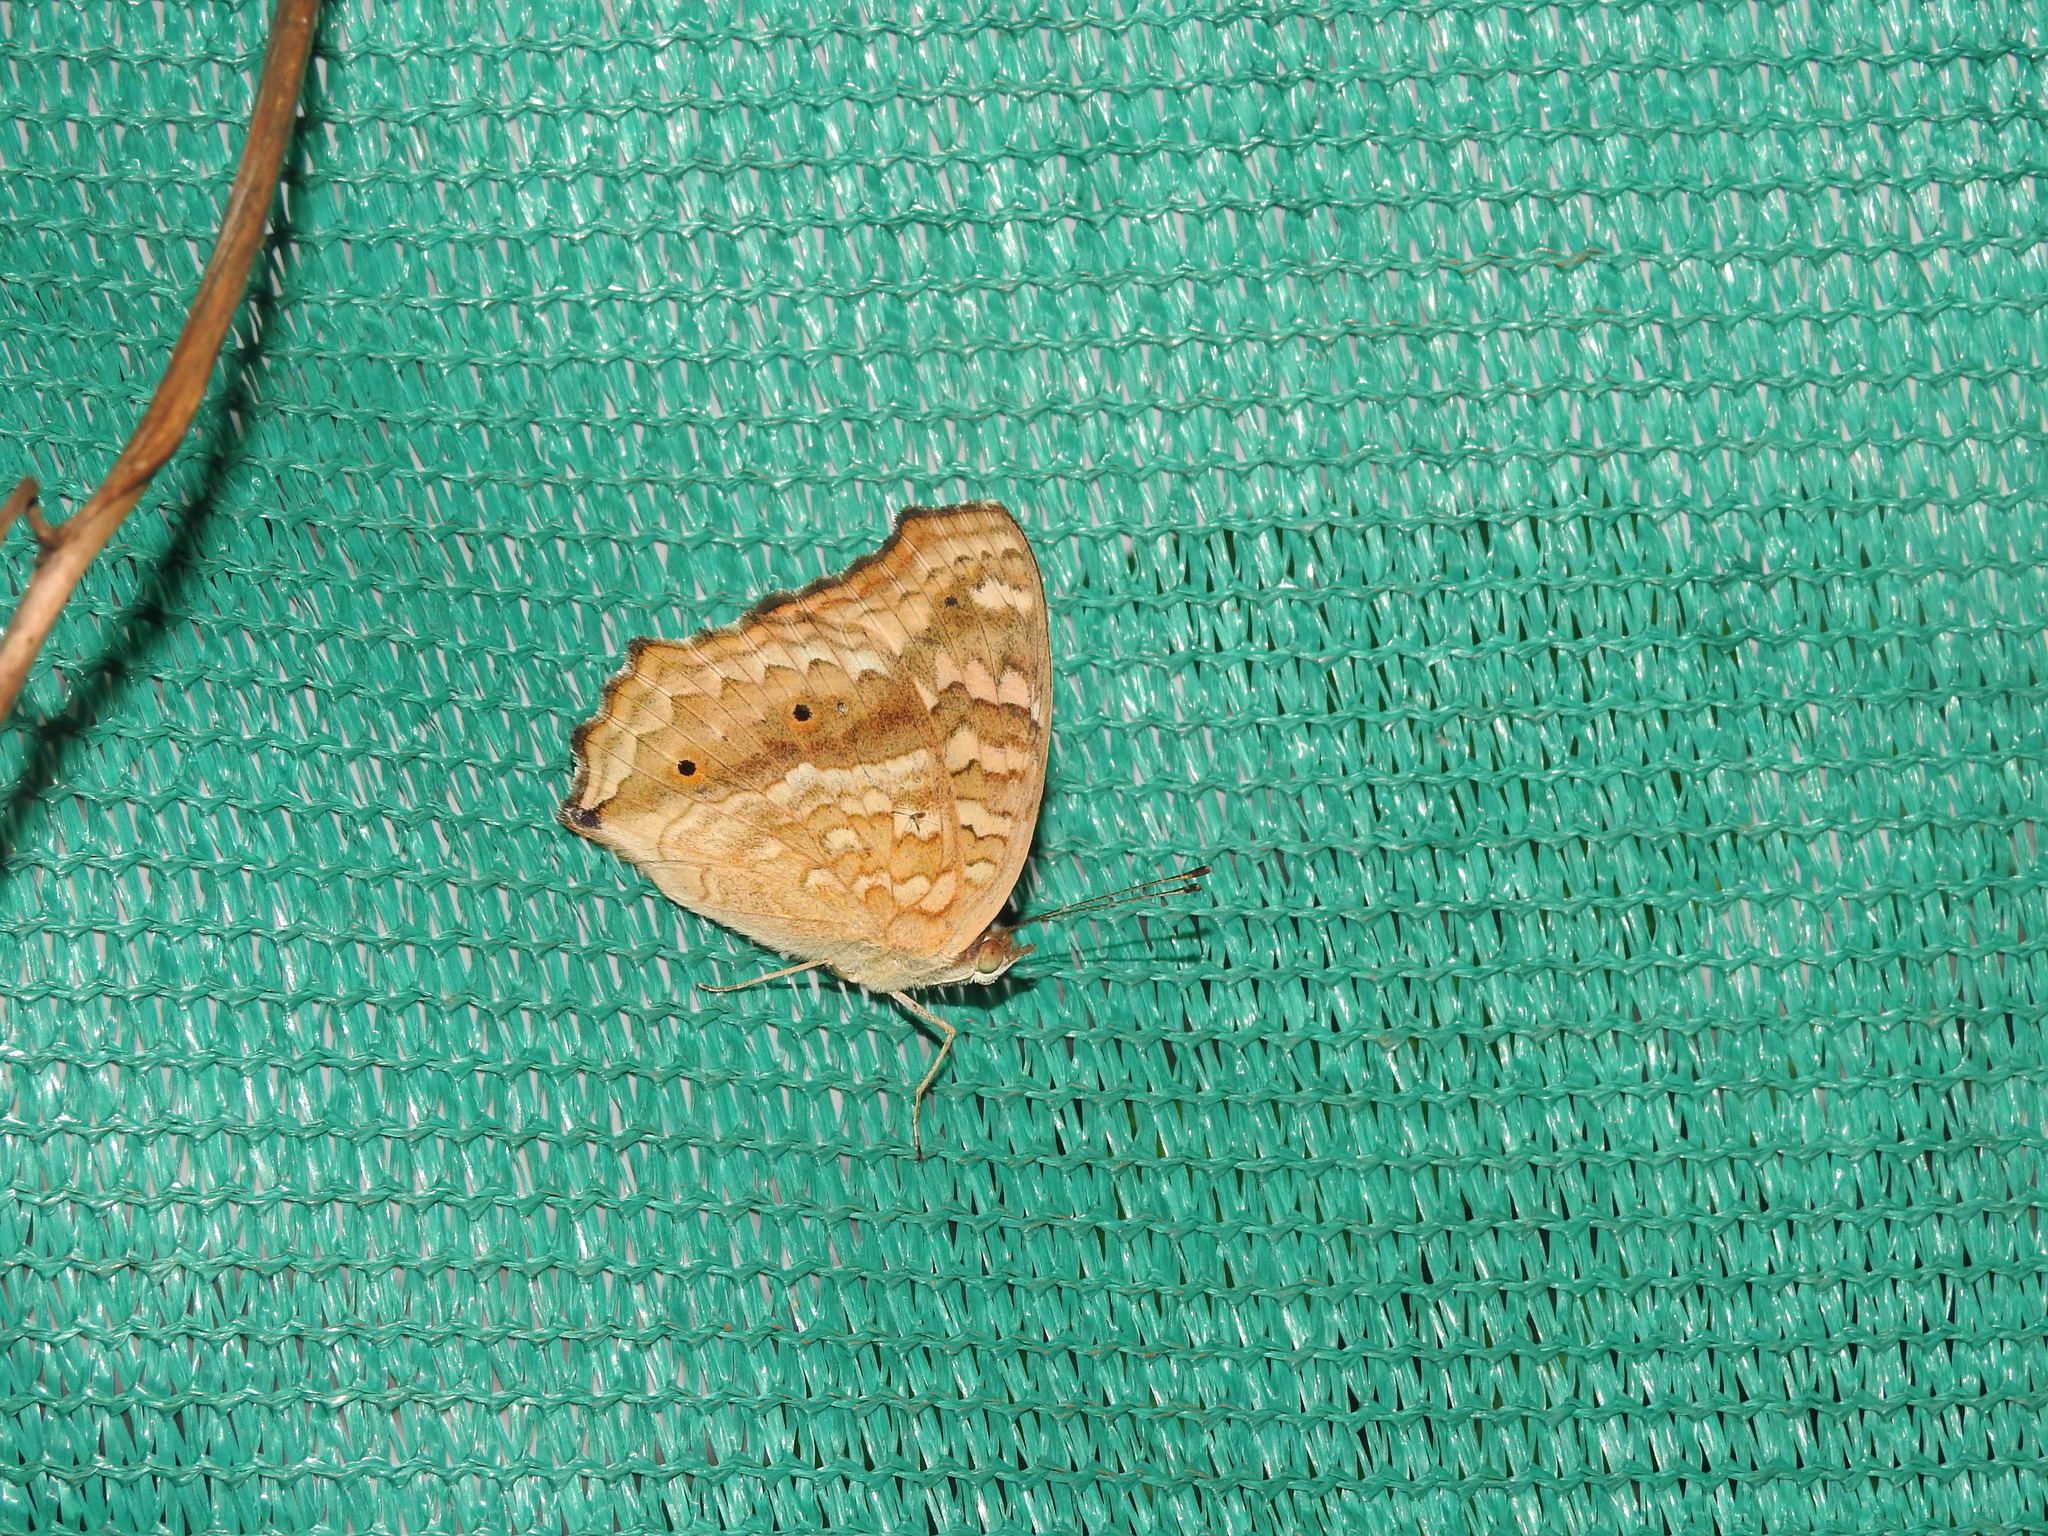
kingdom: Animalia
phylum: Arthropoda
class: Insecta
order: Lepidoptera
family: Nymphalidae
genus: Junonia
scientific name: Junonia lemonias
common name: Lemon pansy
